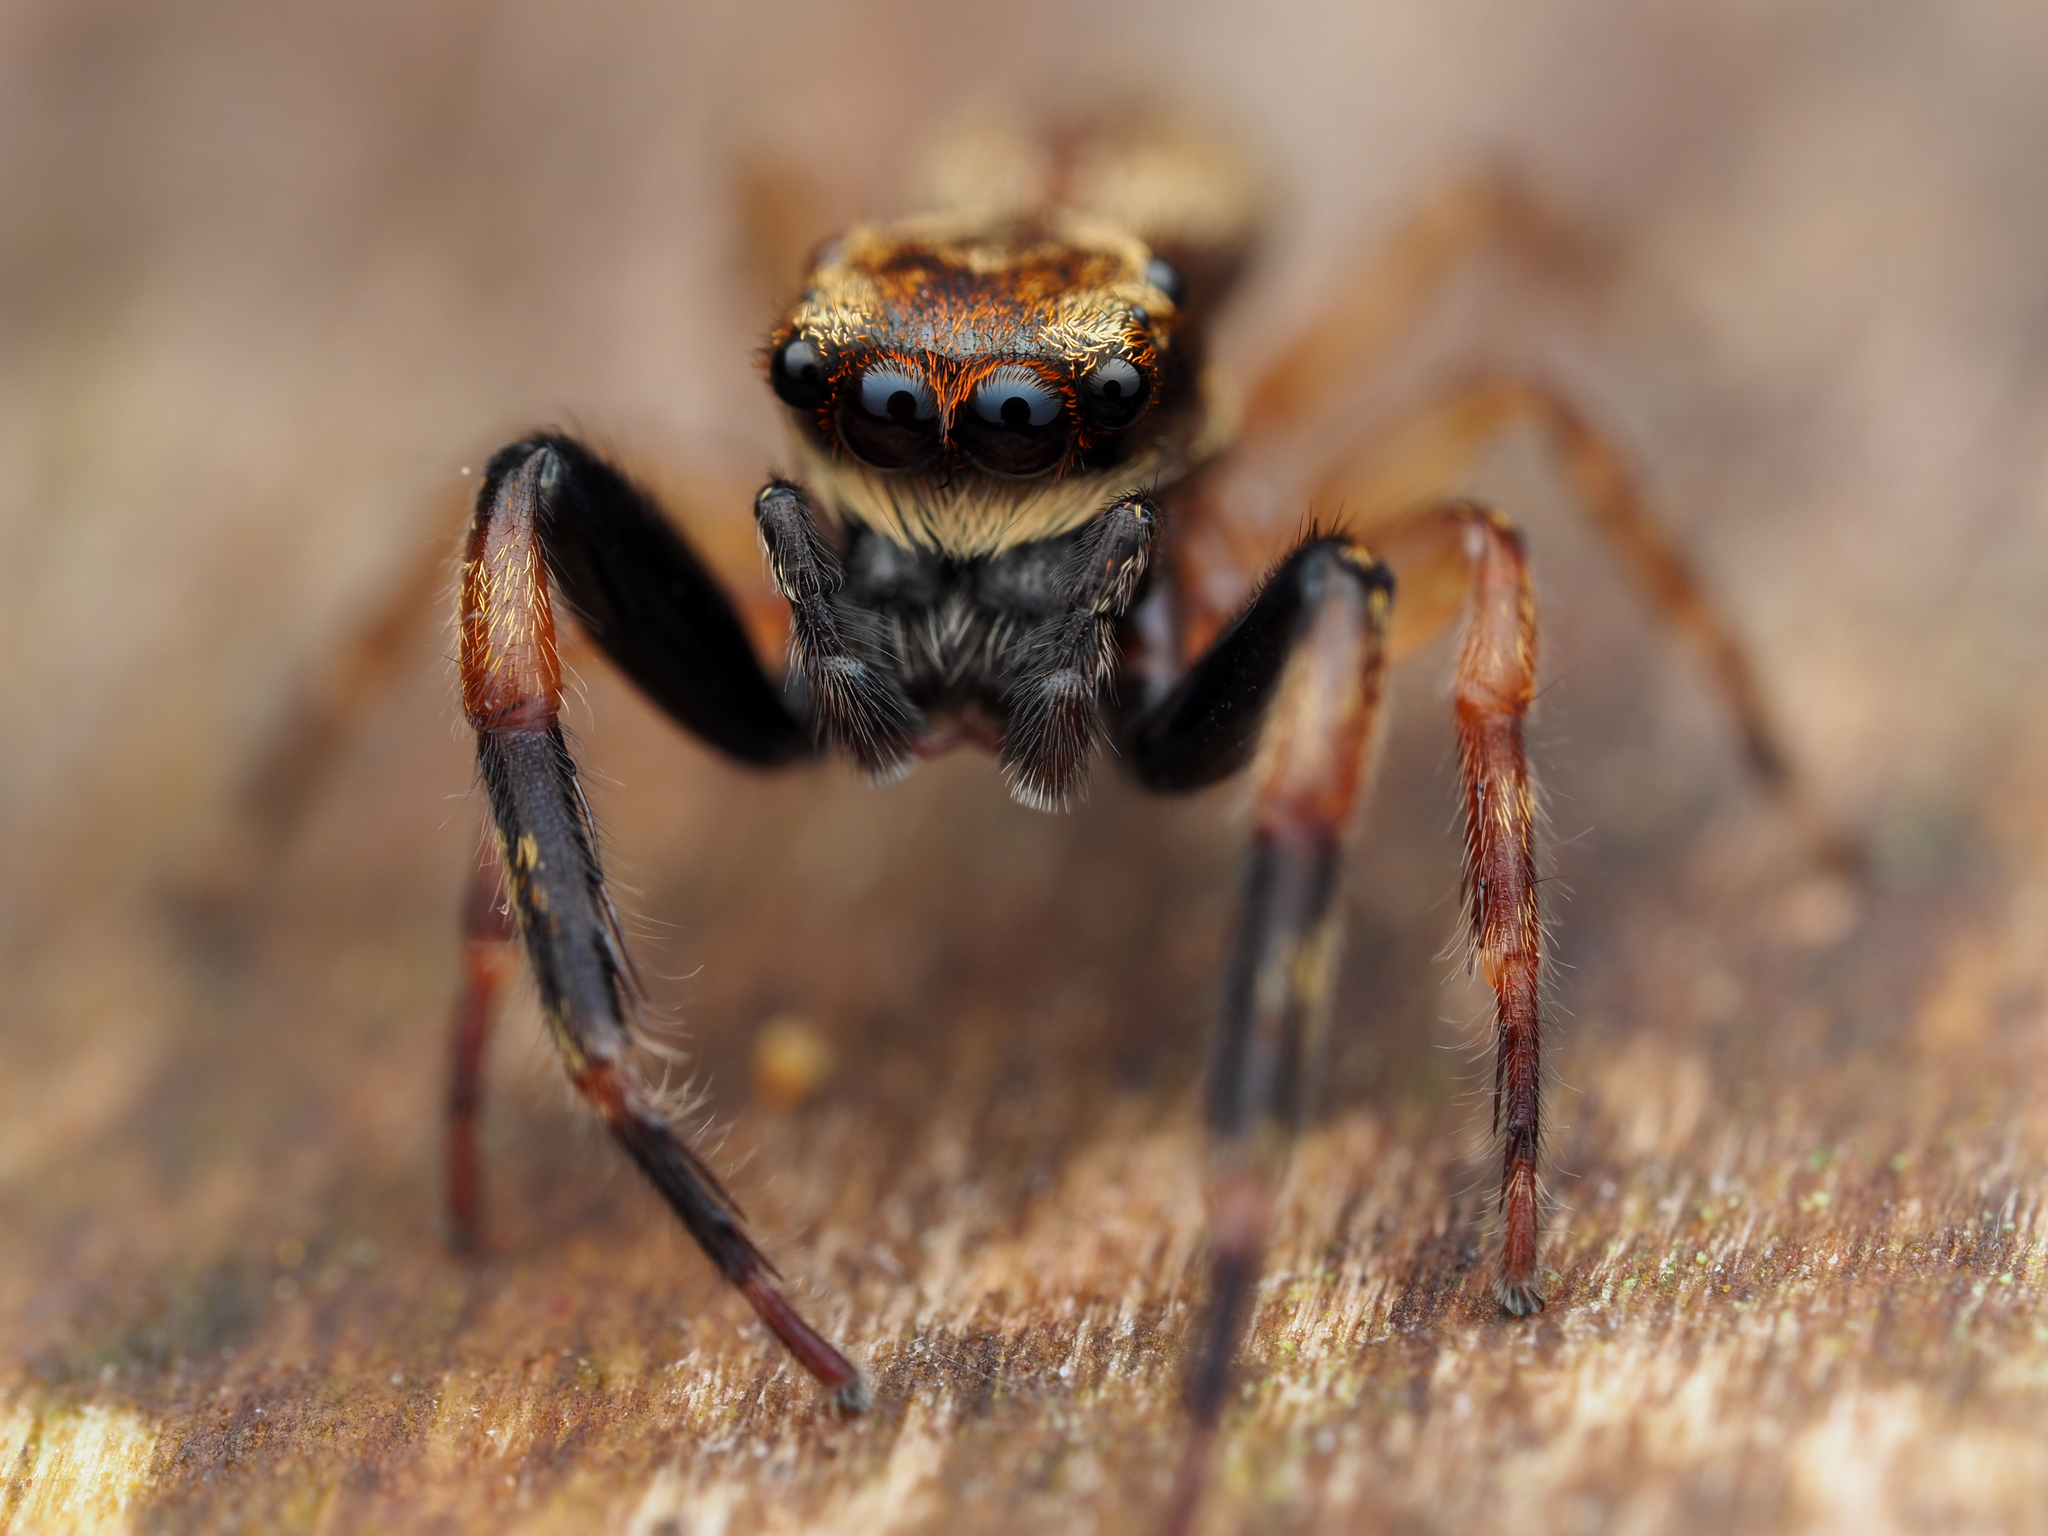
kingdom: Animalia
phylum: Arthropoda
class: Arachnida
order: Araneae
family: Salticidae
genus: Trite
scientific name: Trite auricoma
